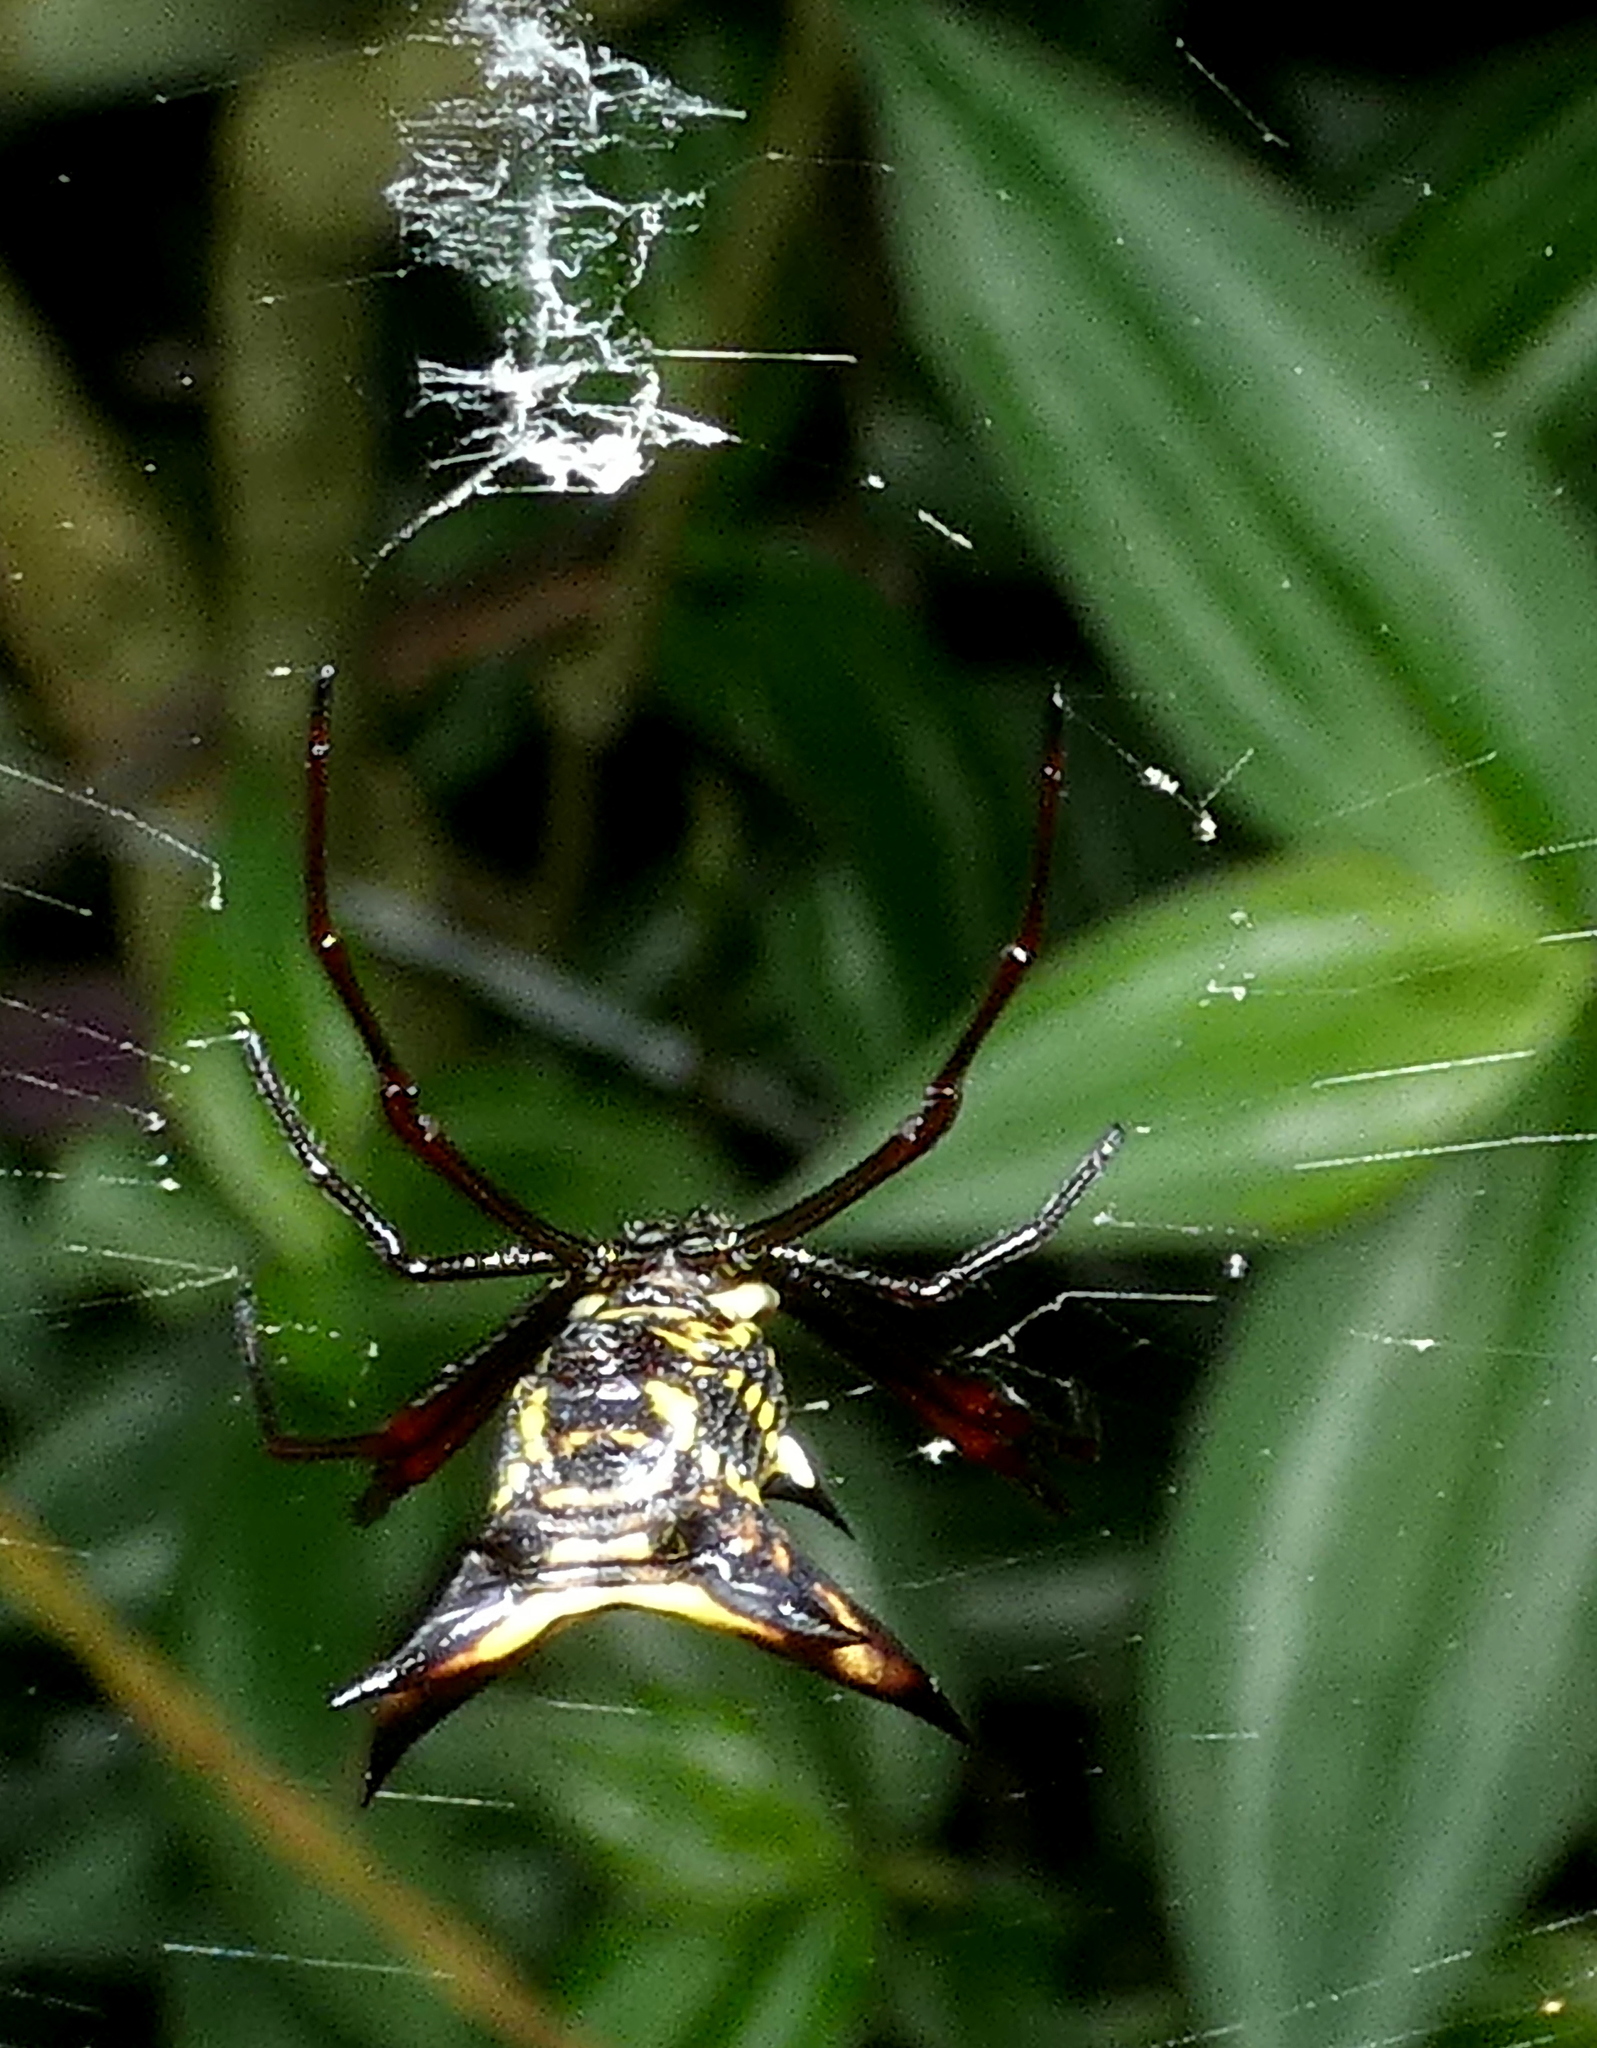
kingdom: Animalia
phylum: Arthropoda
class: Arachnida
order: Araneae
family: Araneidae
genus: Micrathena
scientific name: Micrathena fissispina
